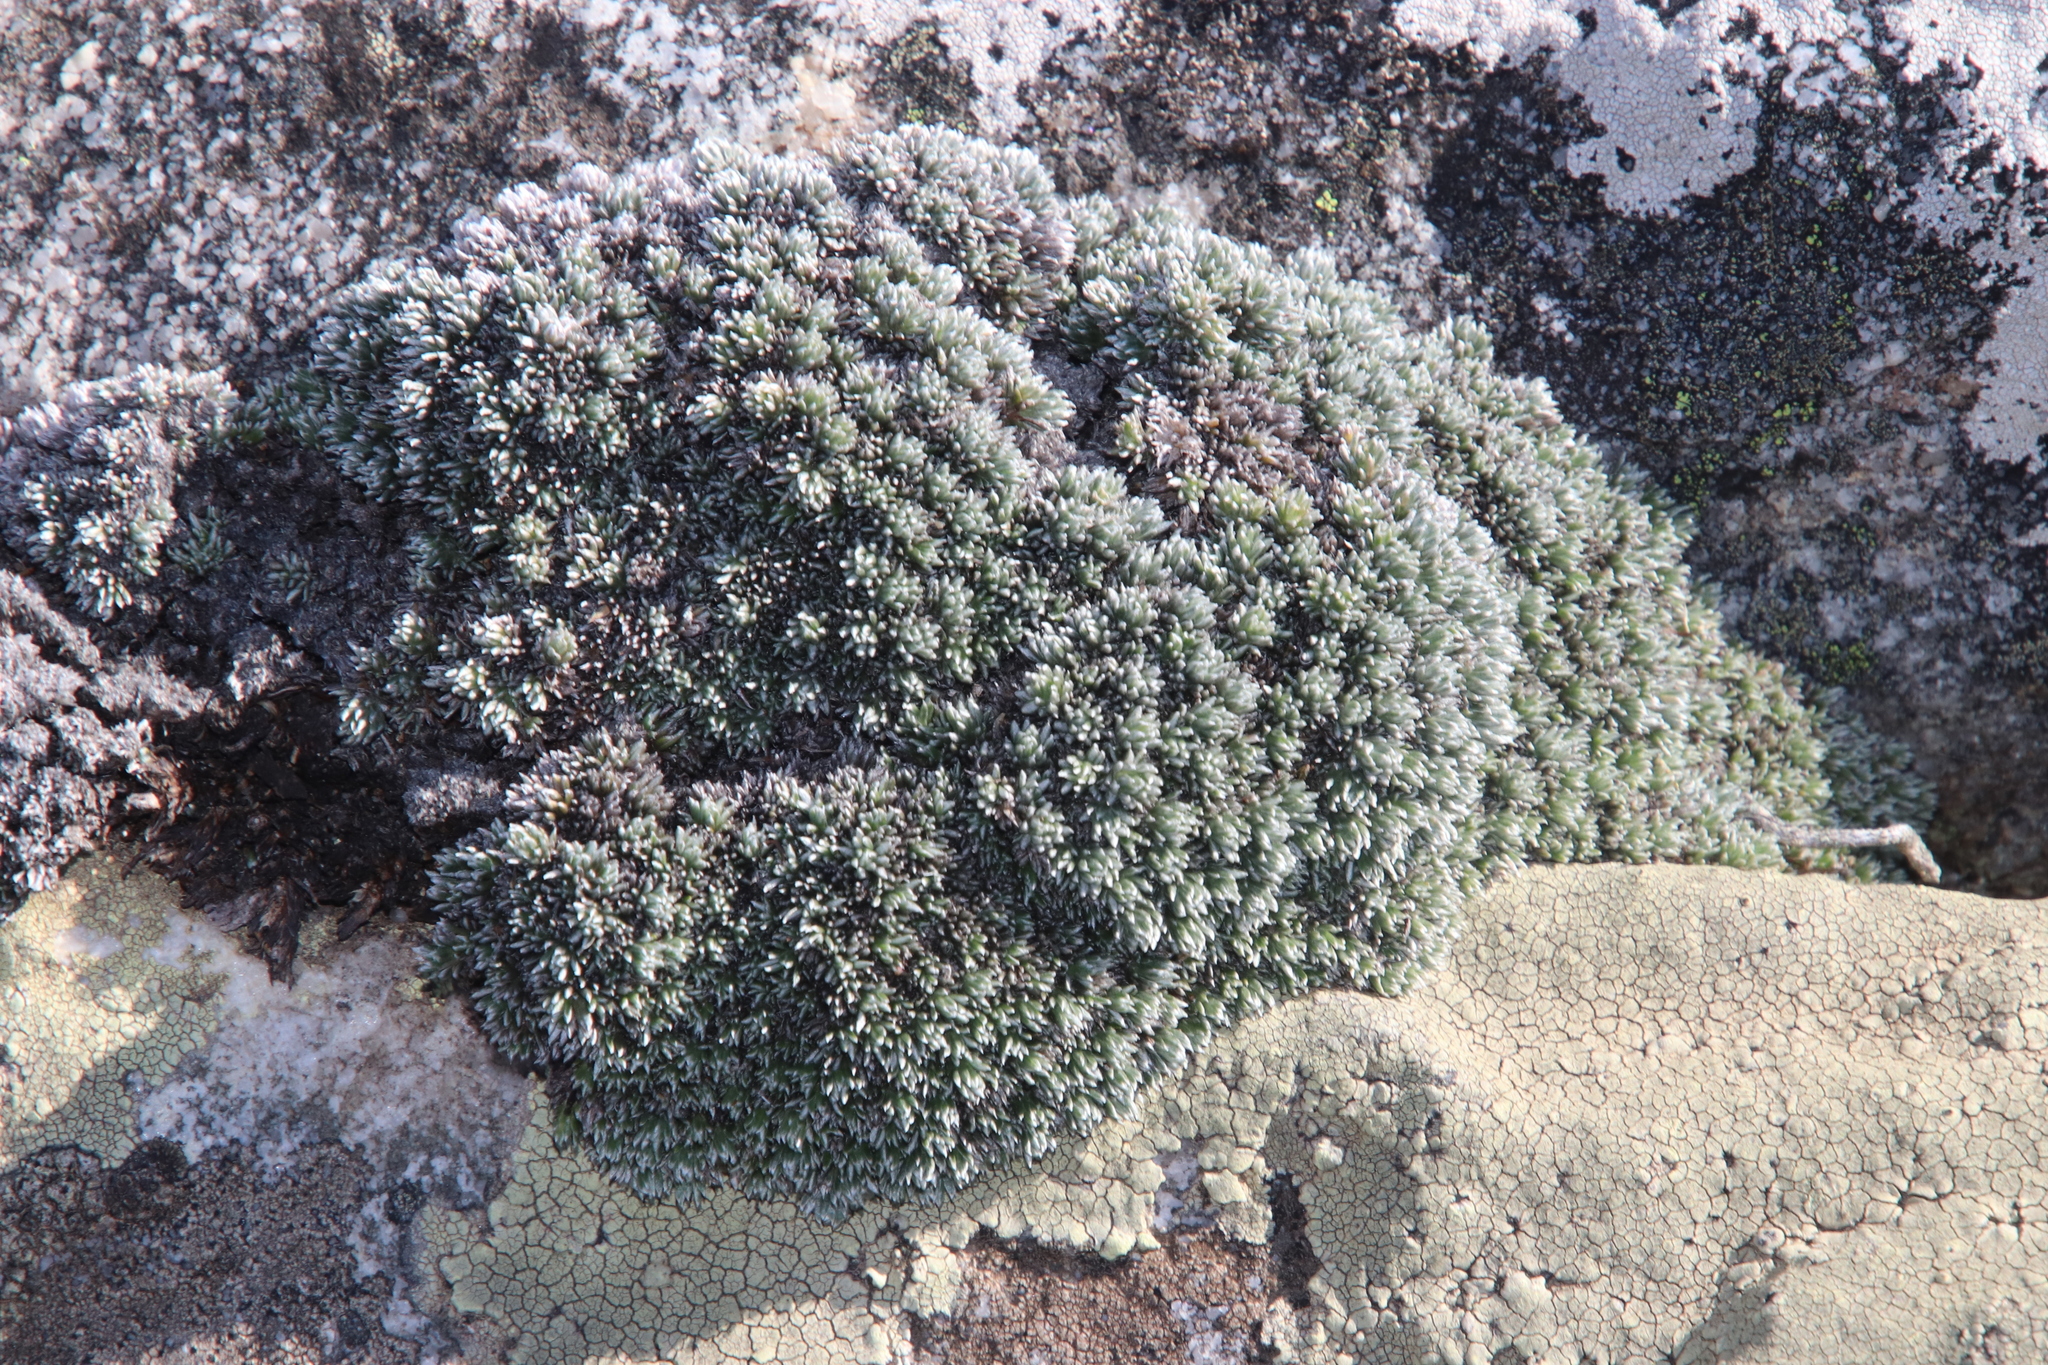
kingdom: Plantae
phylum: Tracheophyta
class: Magnoliopsida
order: Asterales
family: Asteraceae
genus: Muscosomorphe
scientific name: Muscosomorphe aretioides
